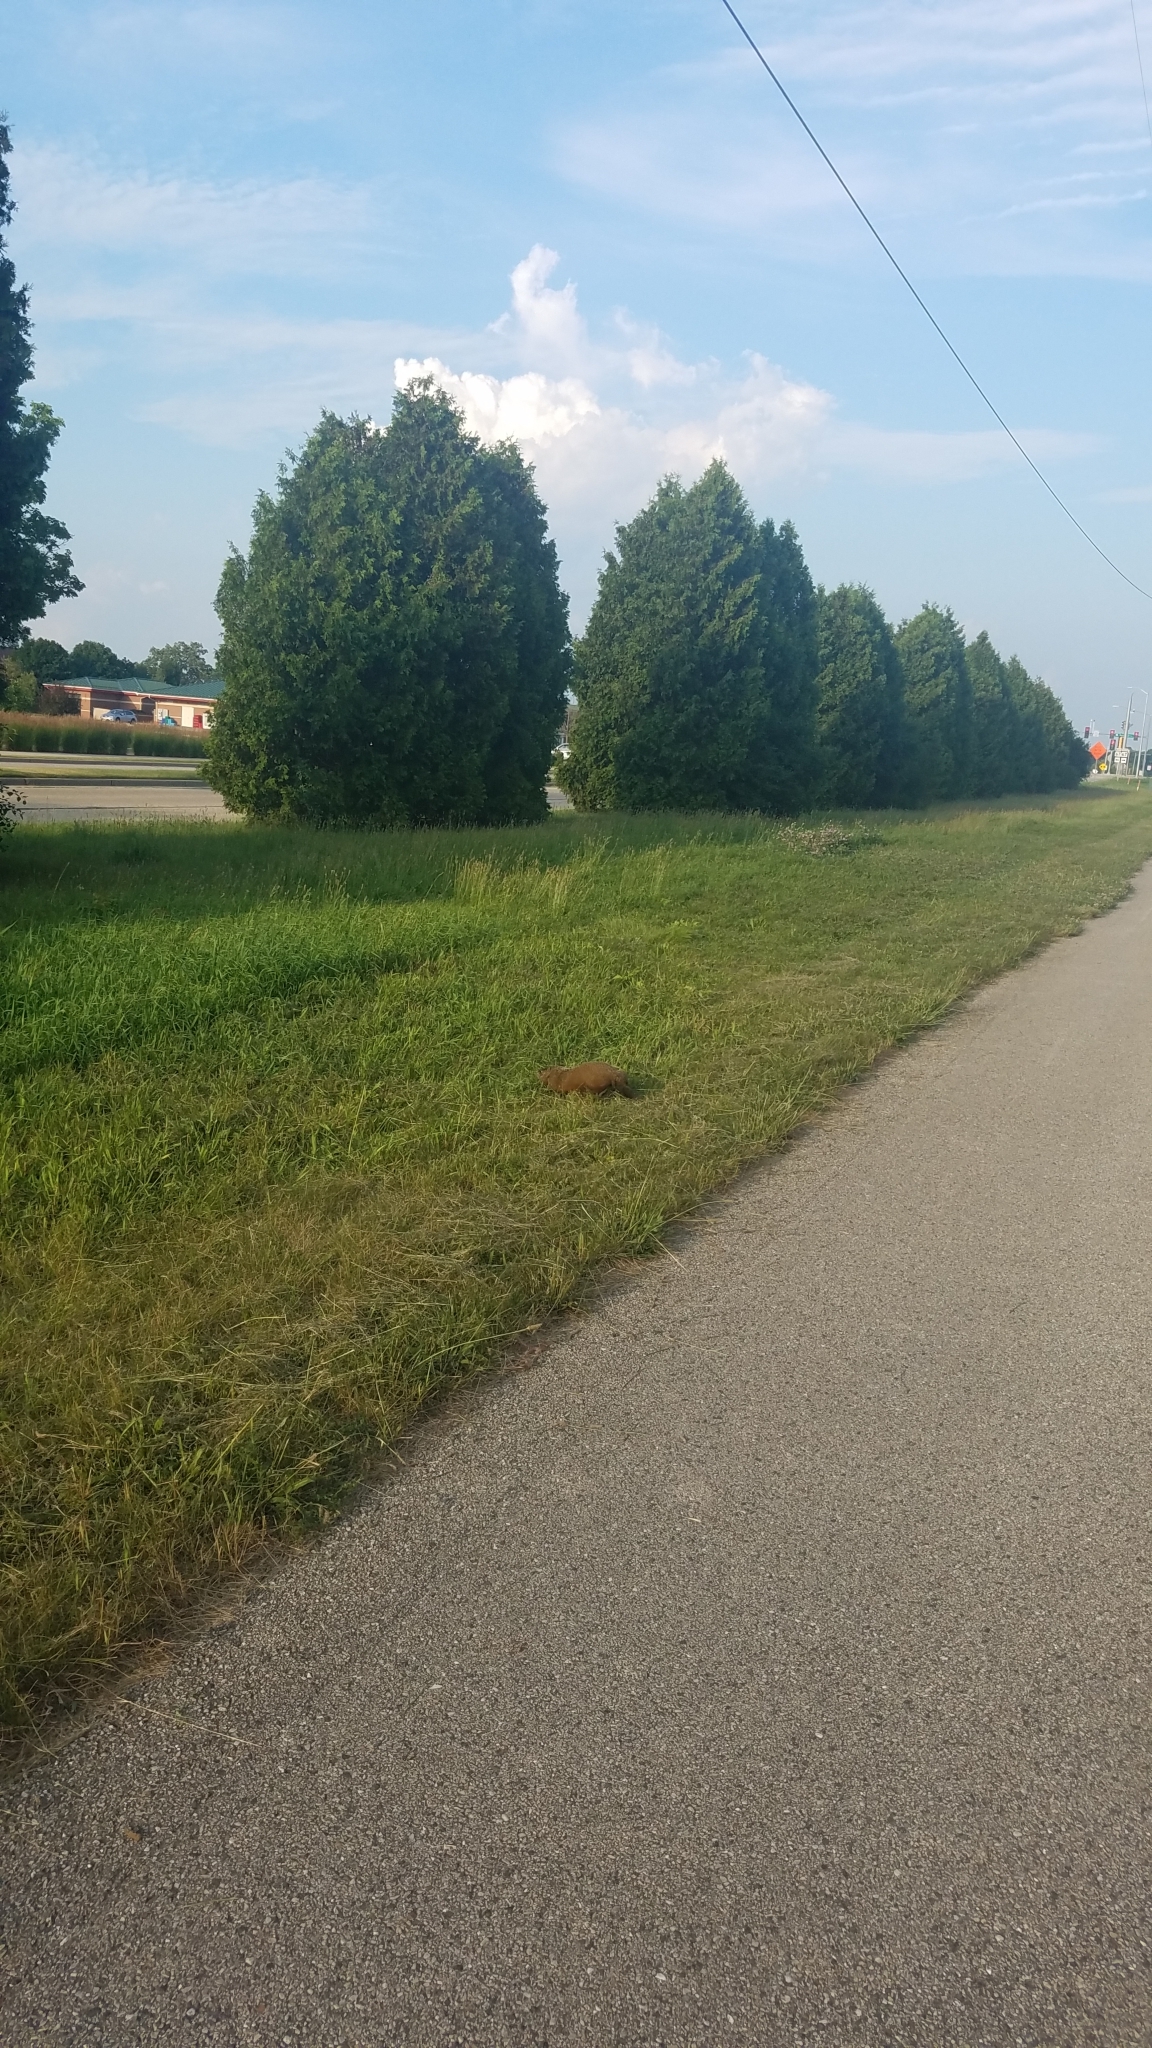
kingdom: Animalia
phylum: Chordata
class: Mammalia
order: Rodentia
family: Sciuridae
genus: Marmota
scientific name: Marmota monax
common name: Groundhog
